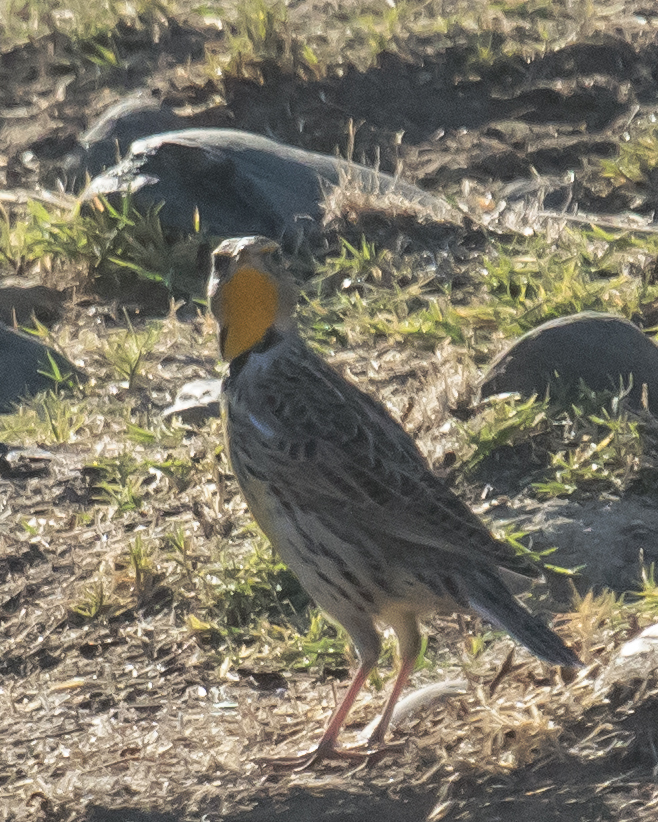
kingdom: Animalia
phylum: Chordata
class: Aves
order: Passeriformes
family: Icteridae
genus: Sturnella
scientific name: Sturnella neglecta
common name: Western meadowlark
